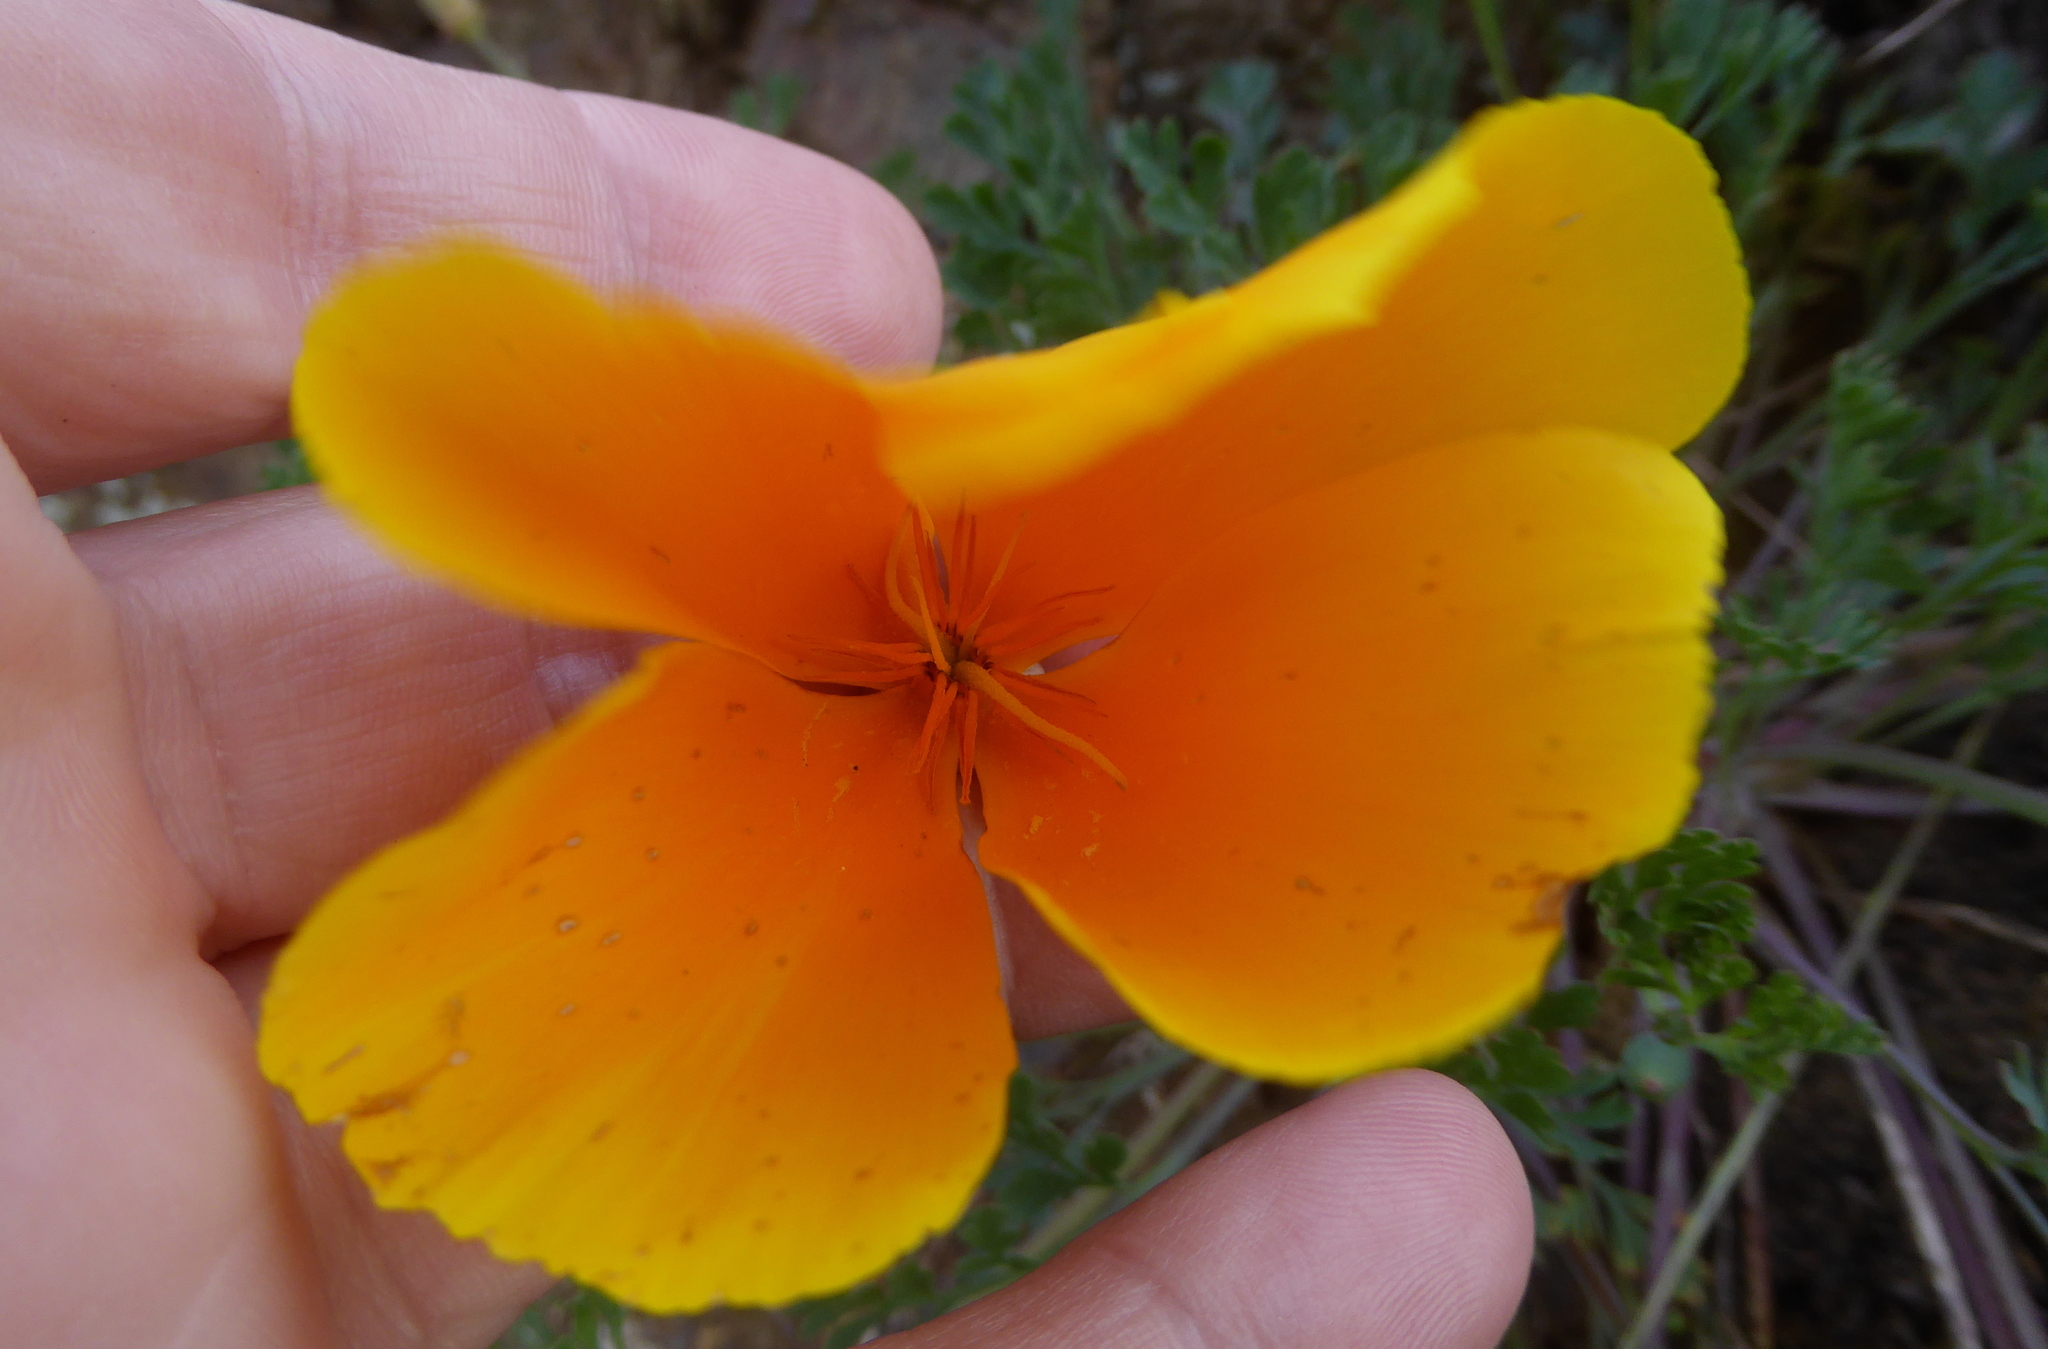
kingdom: Plantae
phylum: Tracheophyta
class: Magnoliopsida
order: Ranunculales
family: Papaveraceae
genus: Eschscholzia
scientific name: Eschscholzia californica
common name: California poppy
